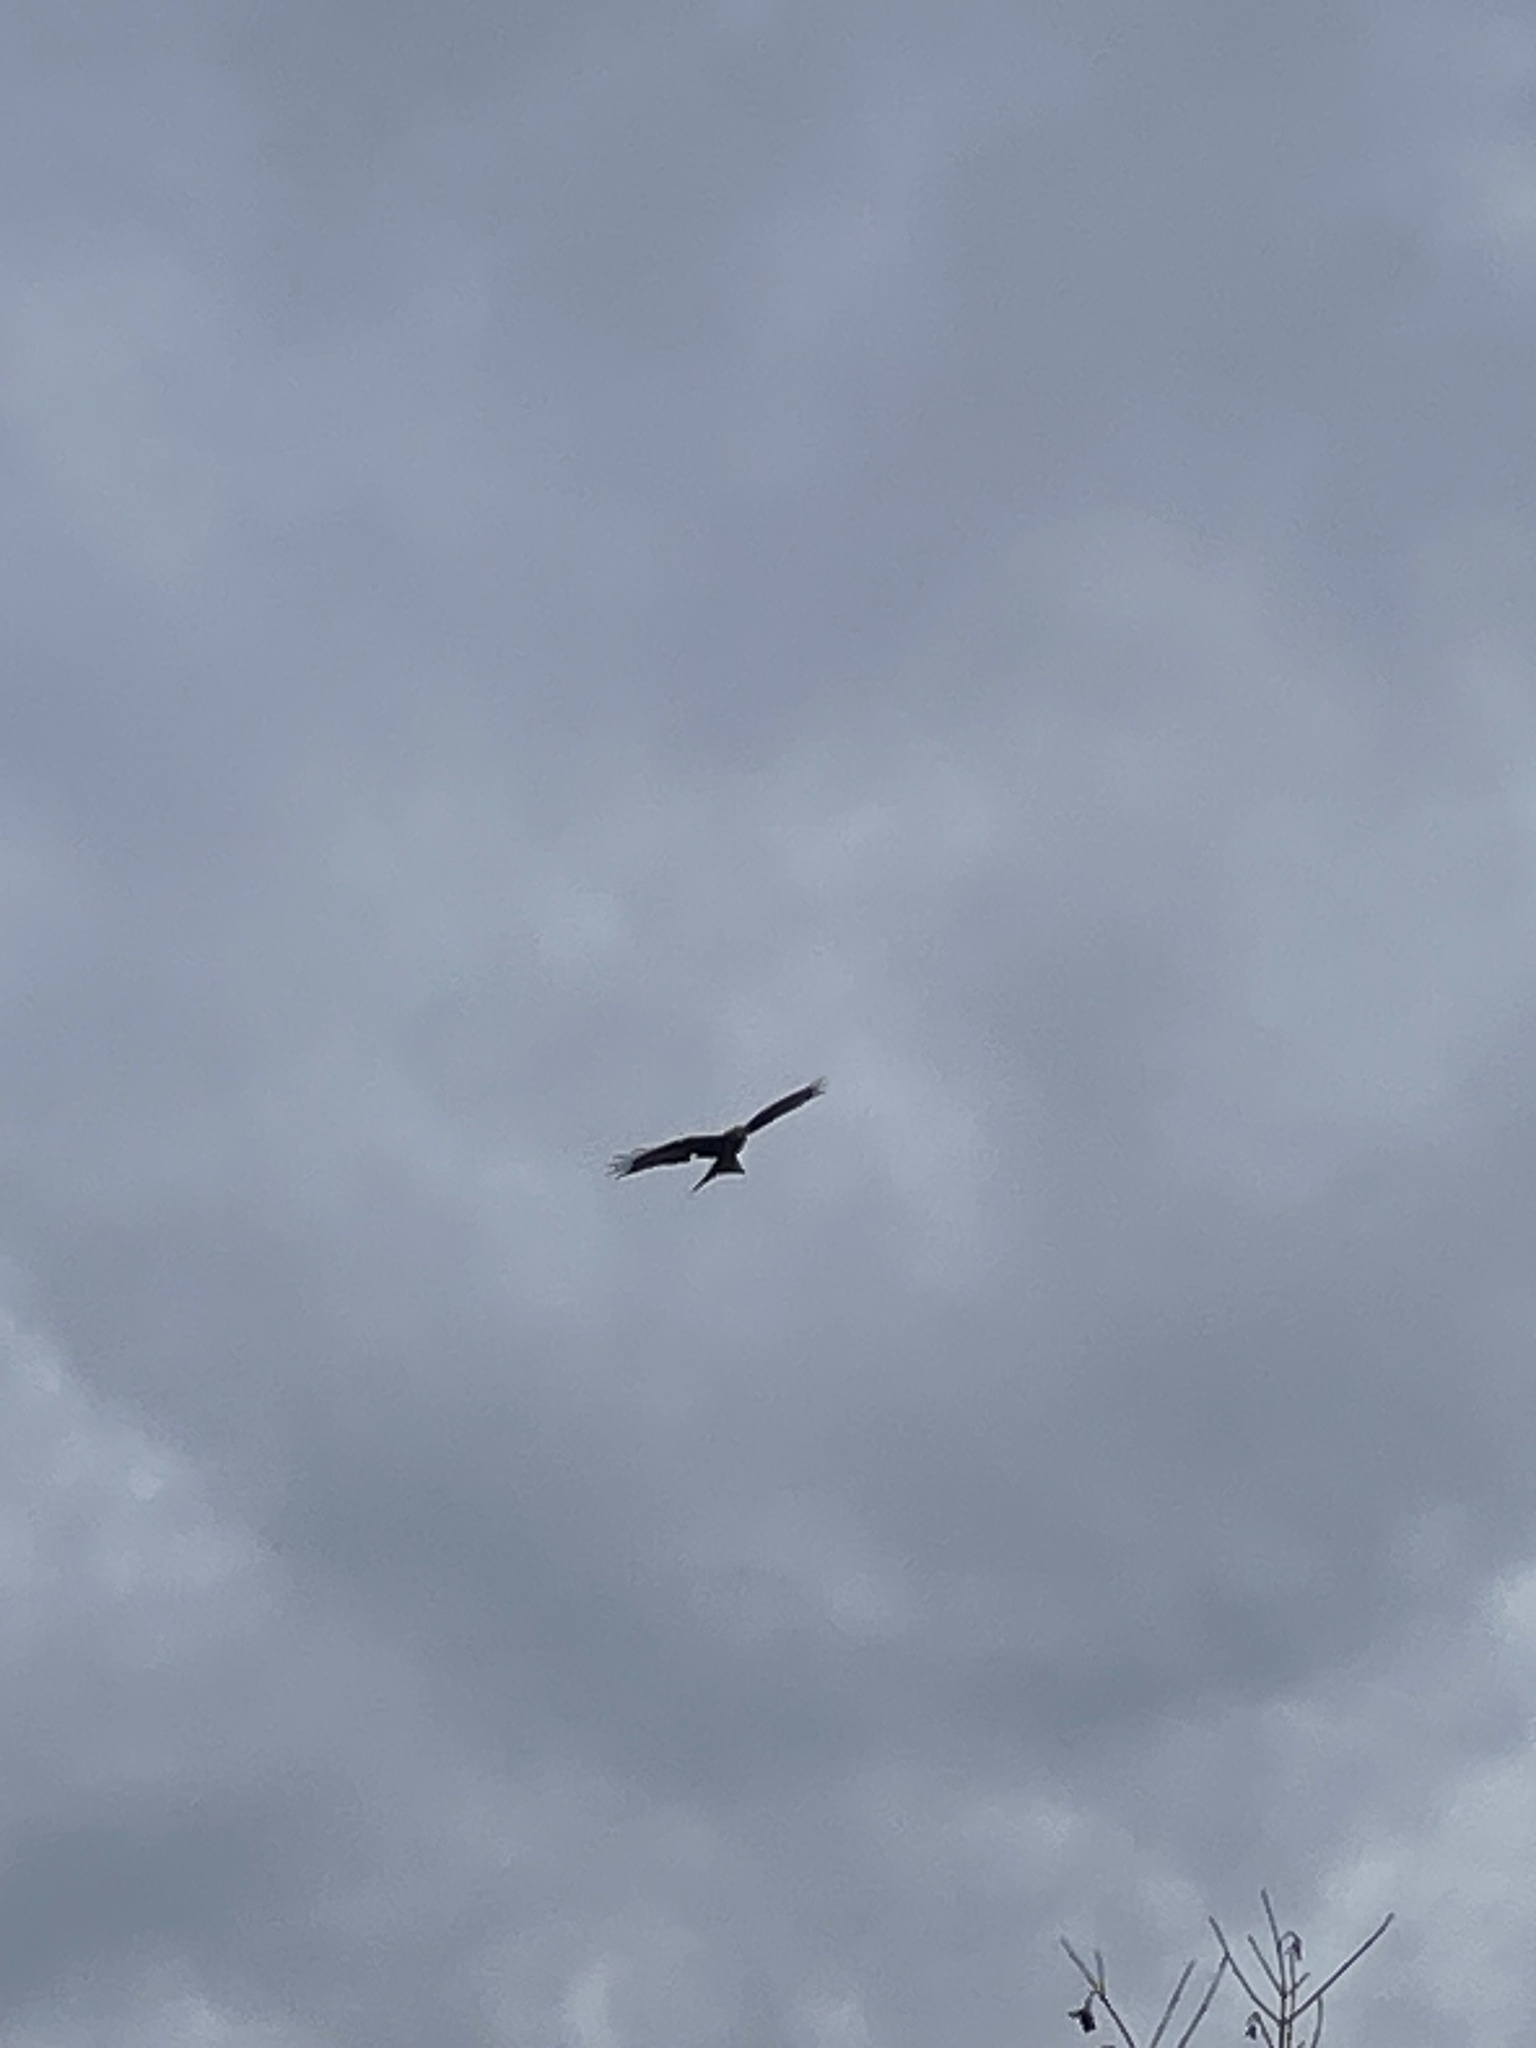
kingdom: Animalia
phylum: Chordata
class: Aves
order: Accipitriformes
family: Accipitridae
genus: Milvus
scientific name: Milvus milvus
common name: Red kite
